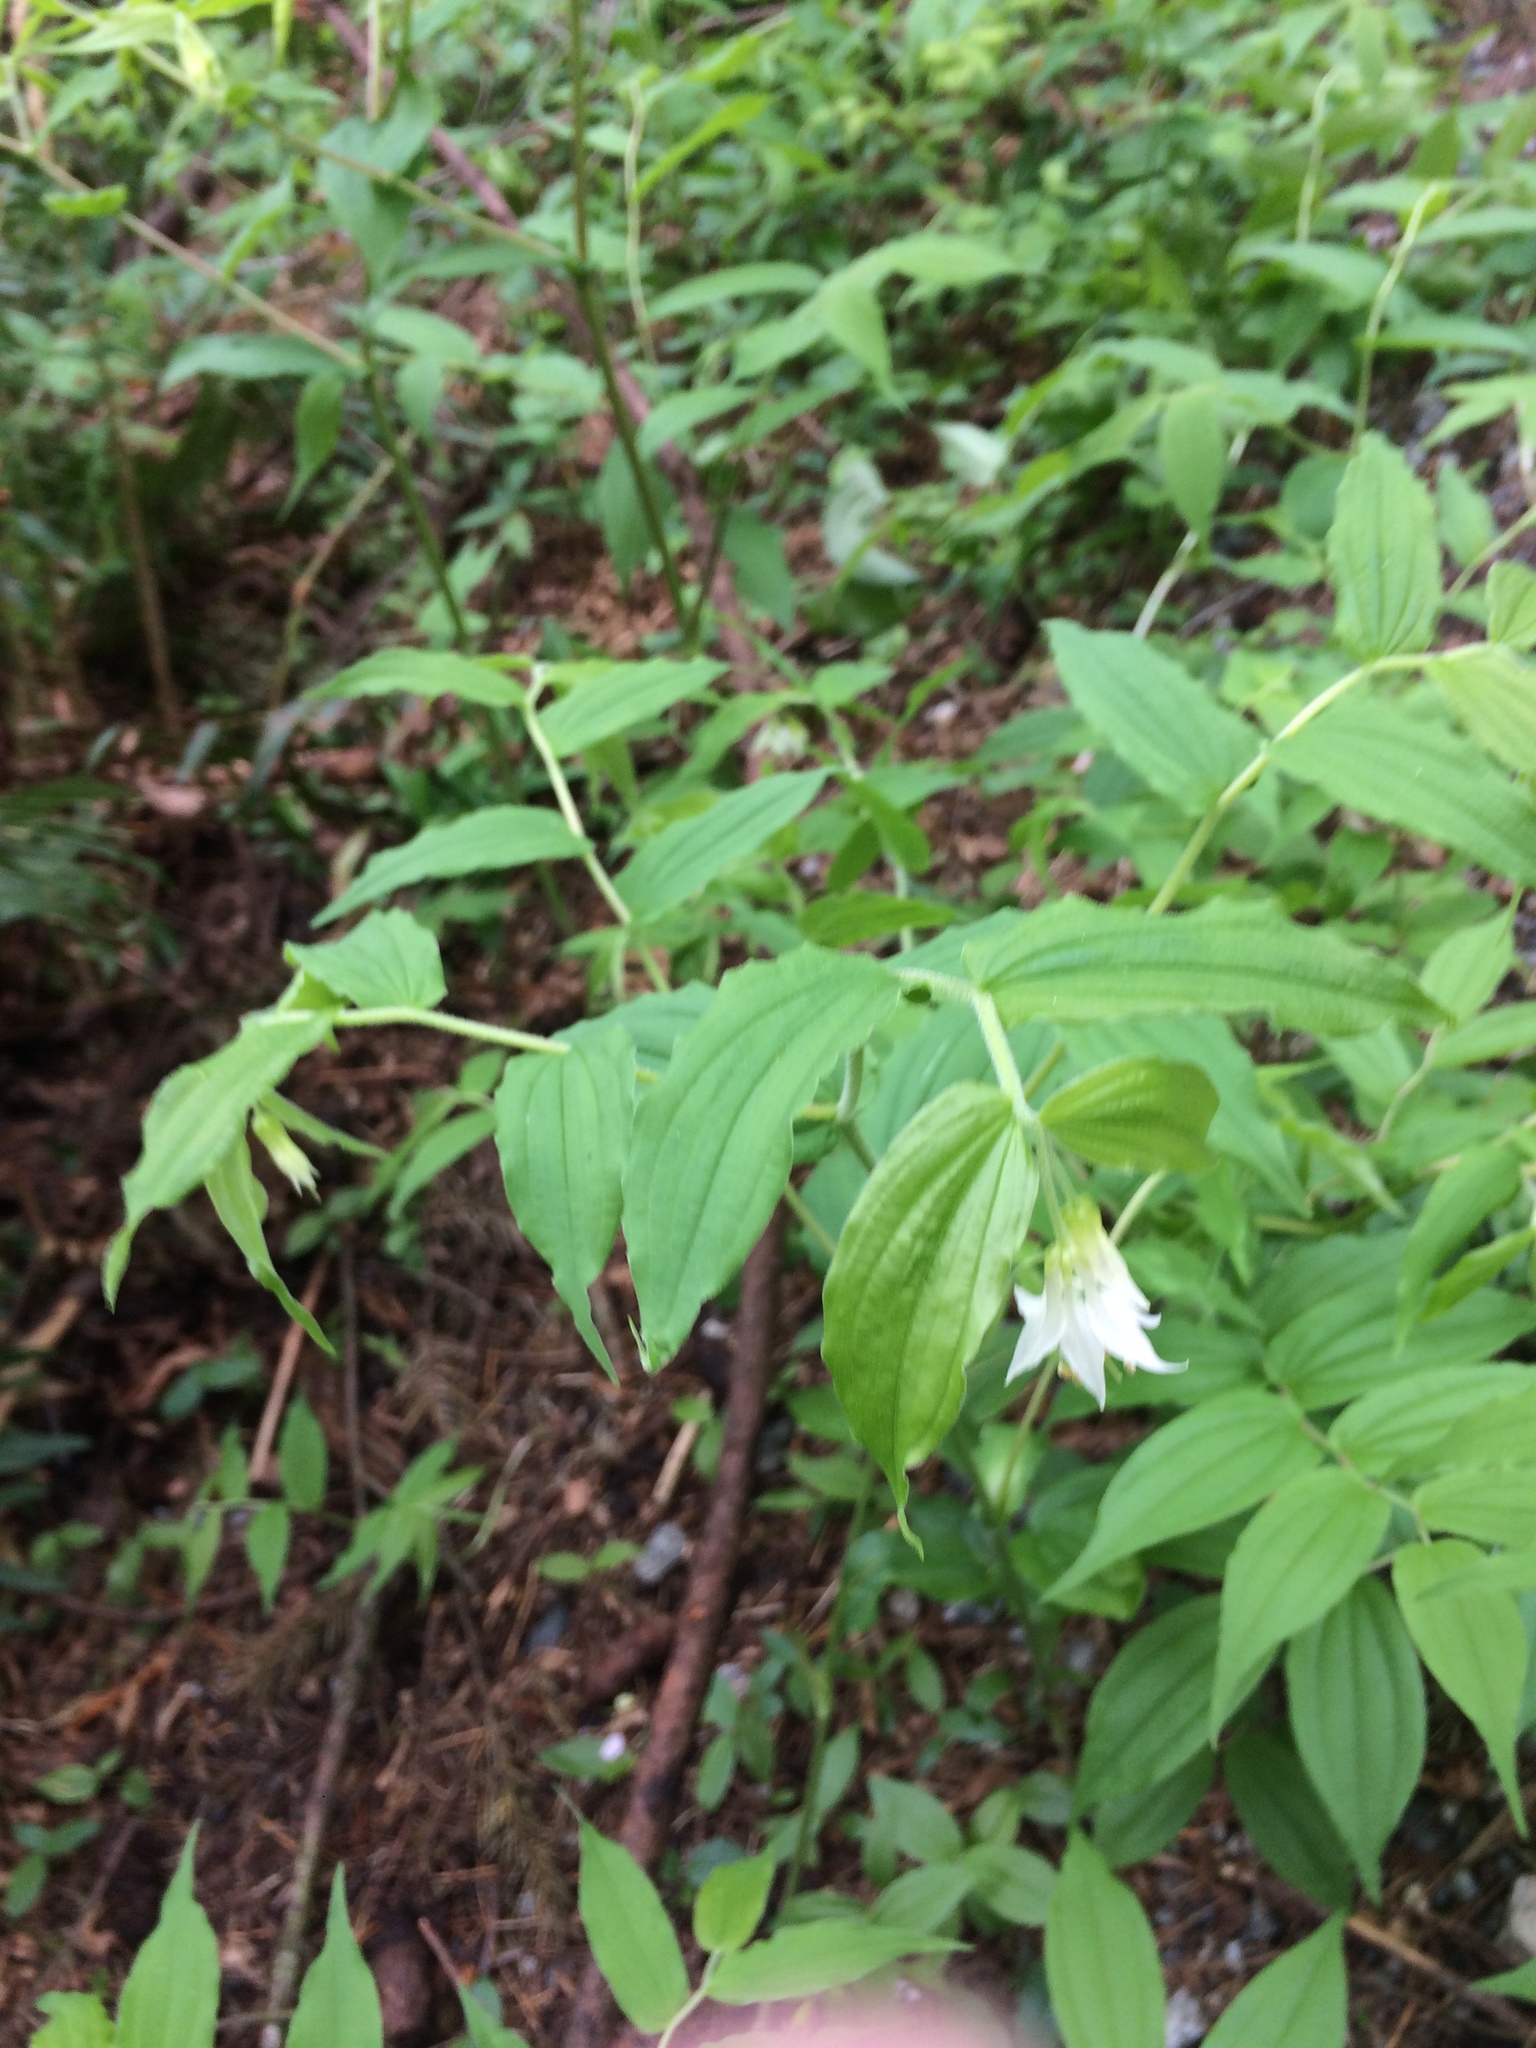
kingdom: Plantae
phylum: Tracheophyta
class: Liliopsida
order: Liliales
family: Liliaceae
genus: Prosartes
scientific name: Prosartes hookeri
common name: Fairy-bells
